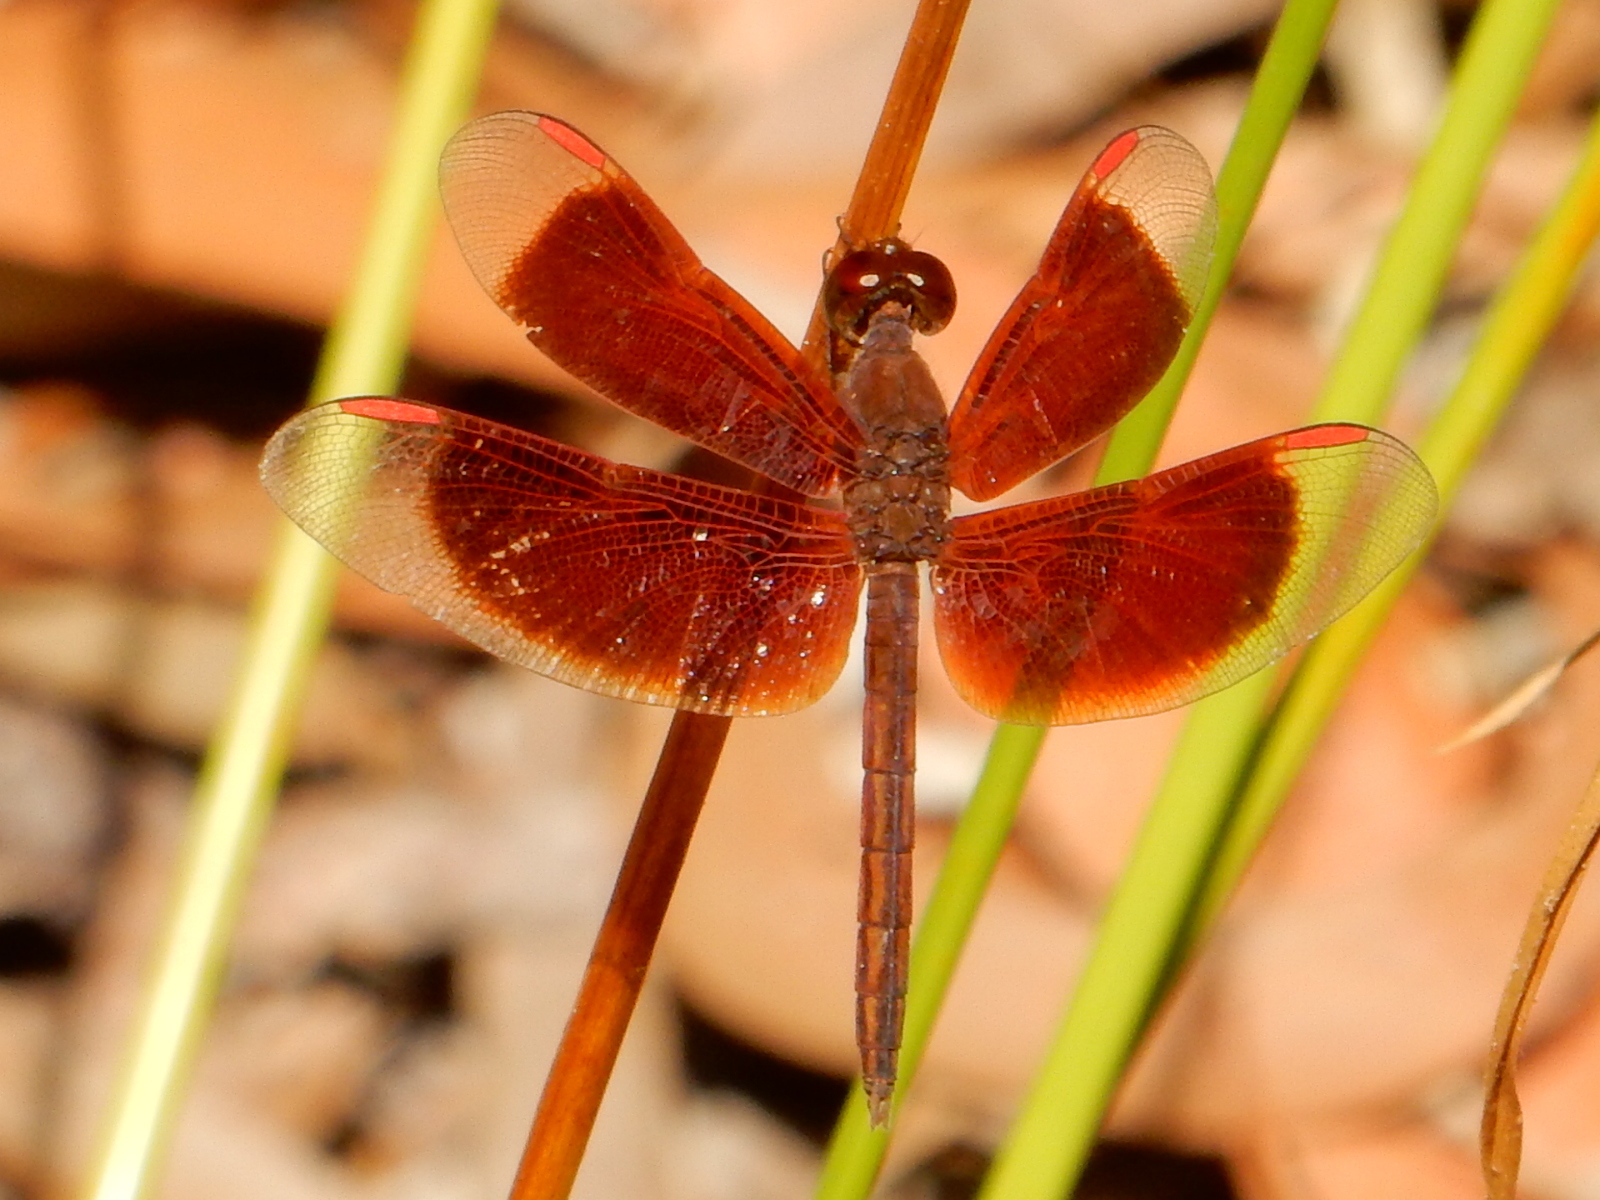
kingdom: Animalia
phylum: Arthropoda
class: Insecta
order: Odonata
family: Libellulidae
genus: Neurothemis
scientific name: Neurothemis stigmatizans
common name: Painted grasshawk
